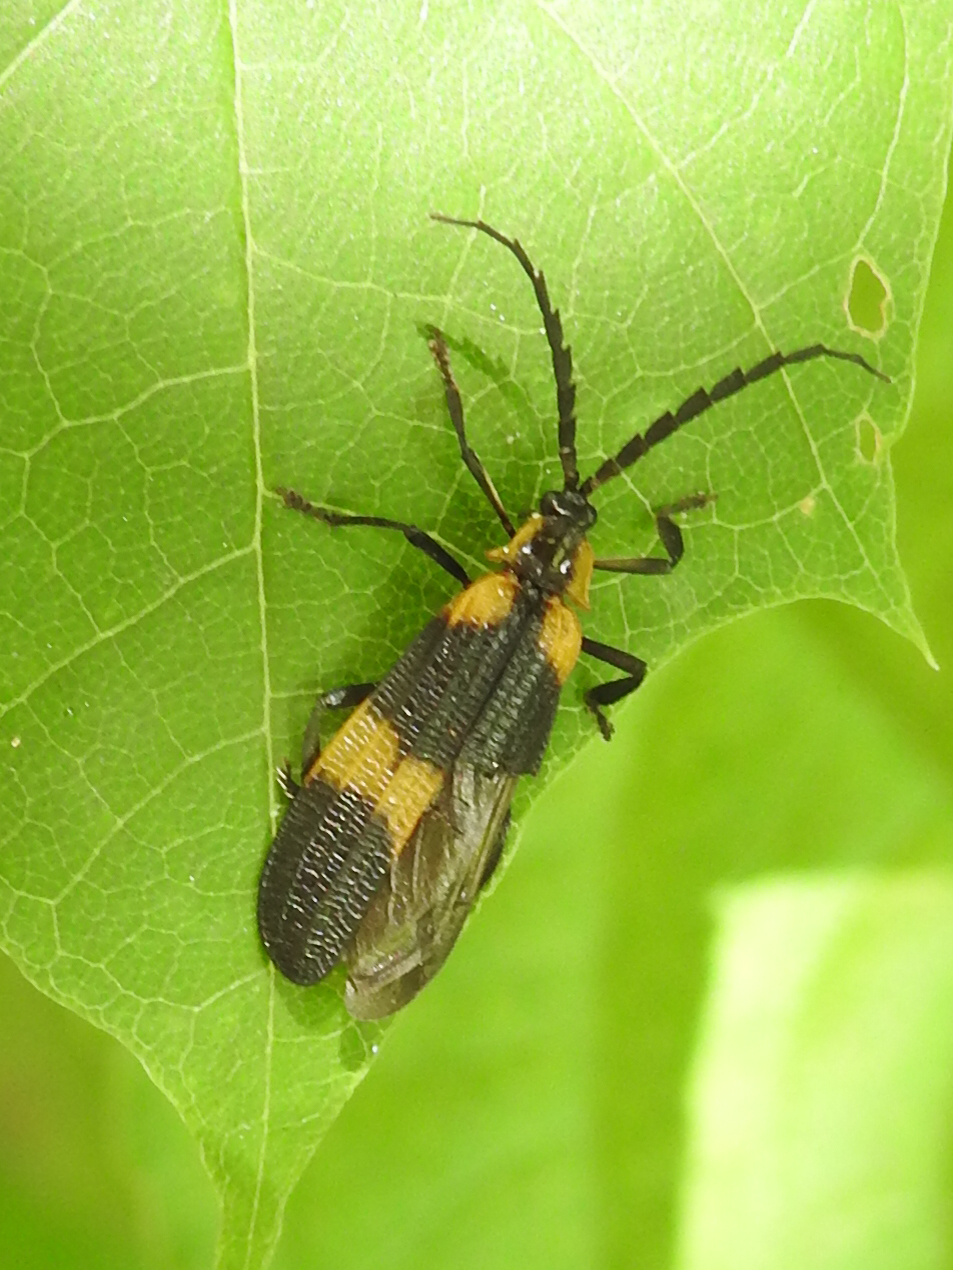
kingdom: Animalia
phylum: Arthropoda
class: Insecta
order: Coleoptera
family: Lycidae
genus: Calopteron
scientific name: Calopteron reticulatum
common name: Banded net-winged beetle
